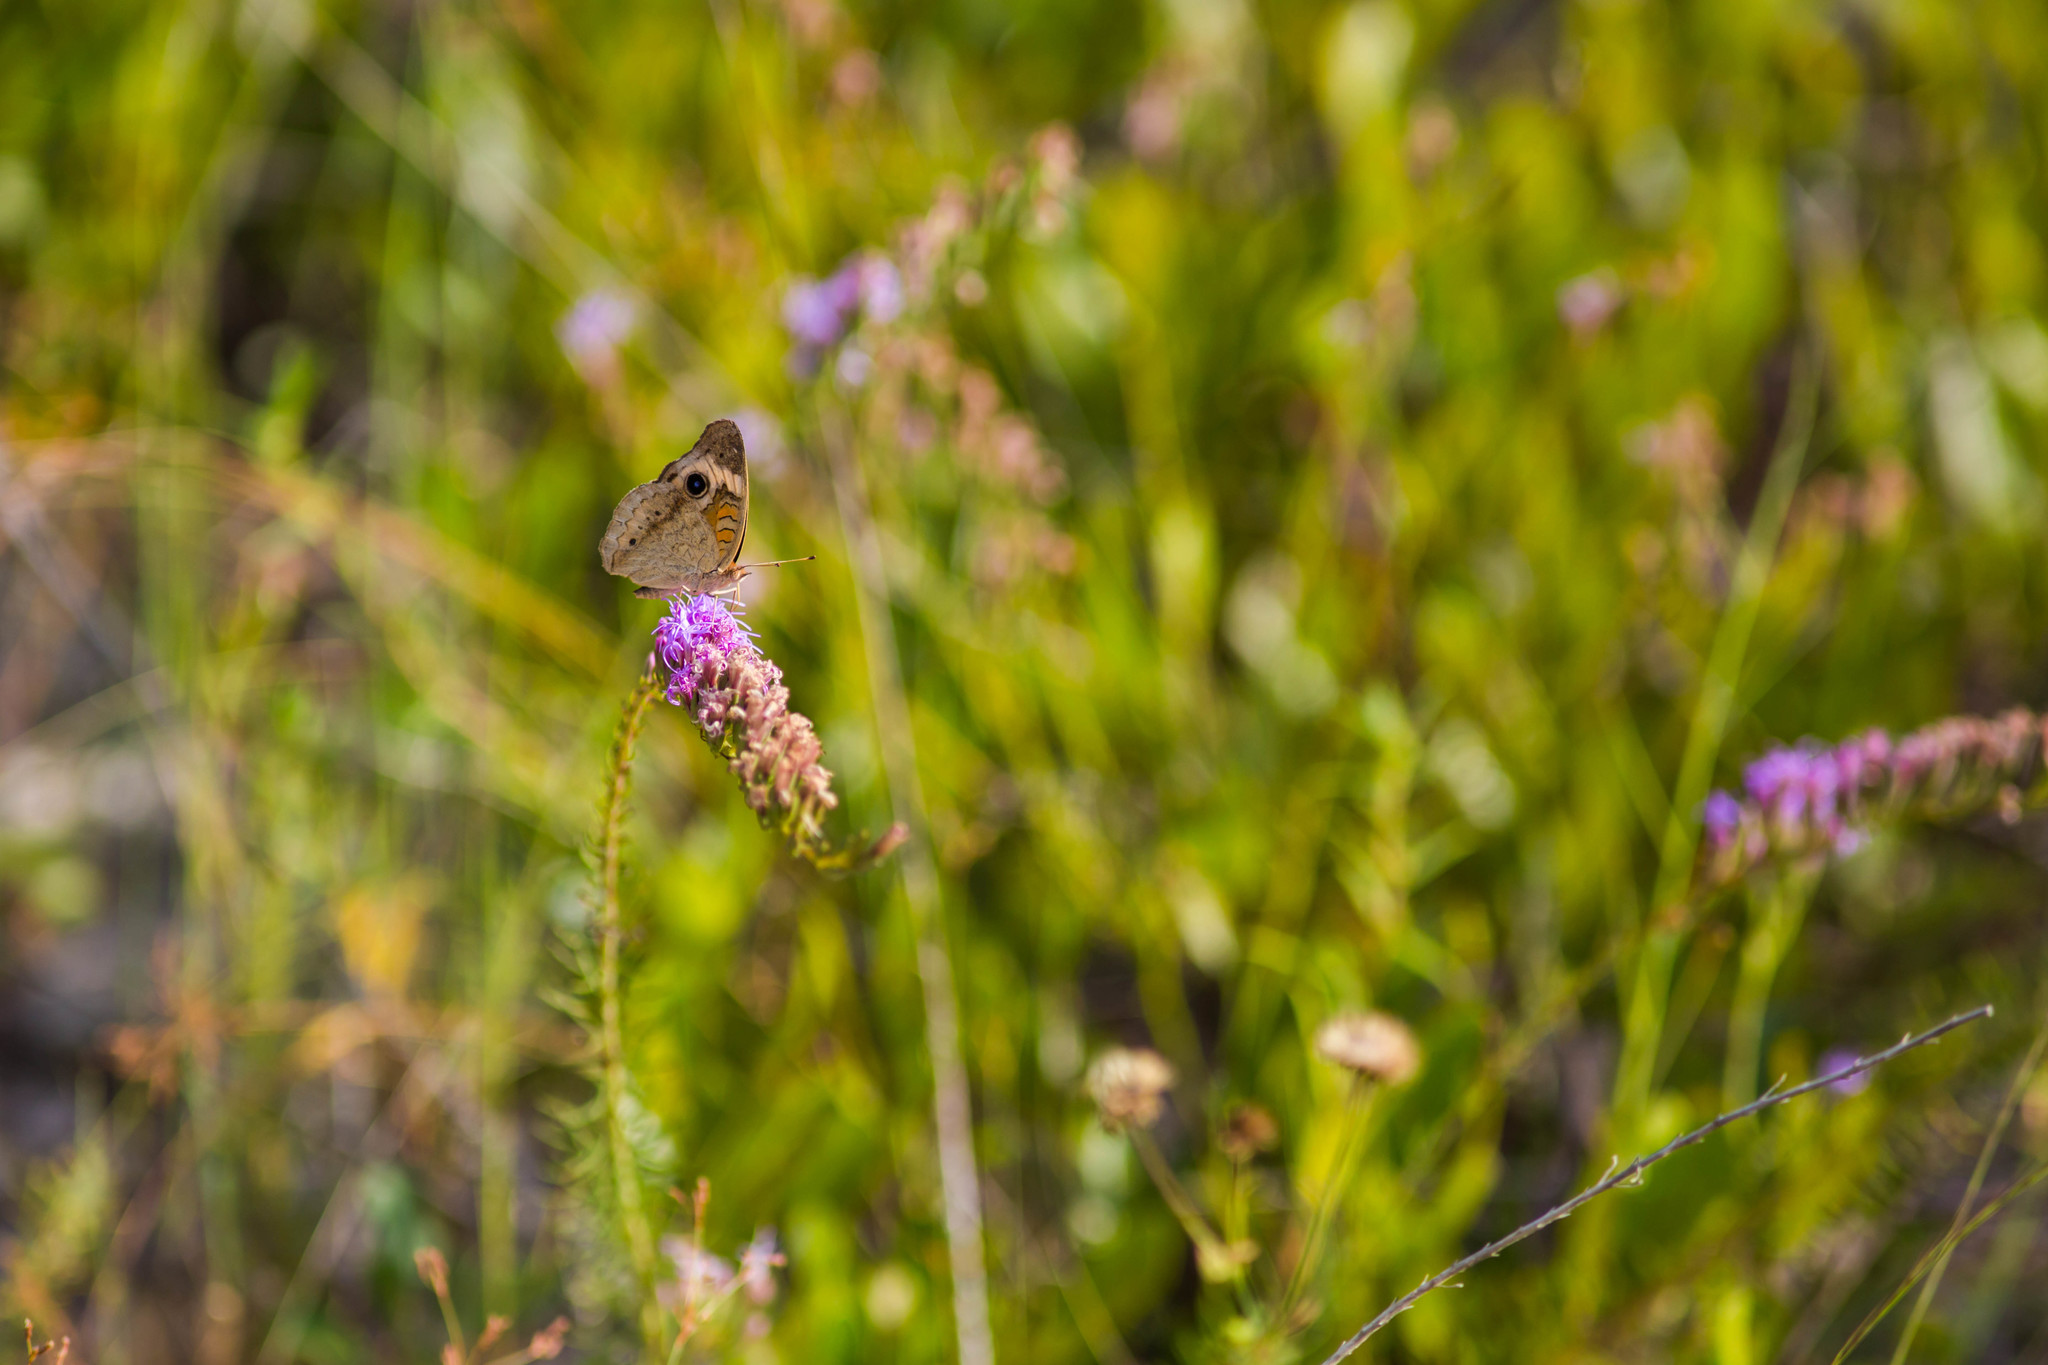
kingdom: Animalia
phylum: Arthropoda
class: Insecta
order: Lepidoptera
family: Nymphalidae
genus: Junonia
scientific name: Junonia coenia
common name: Common buckeye
